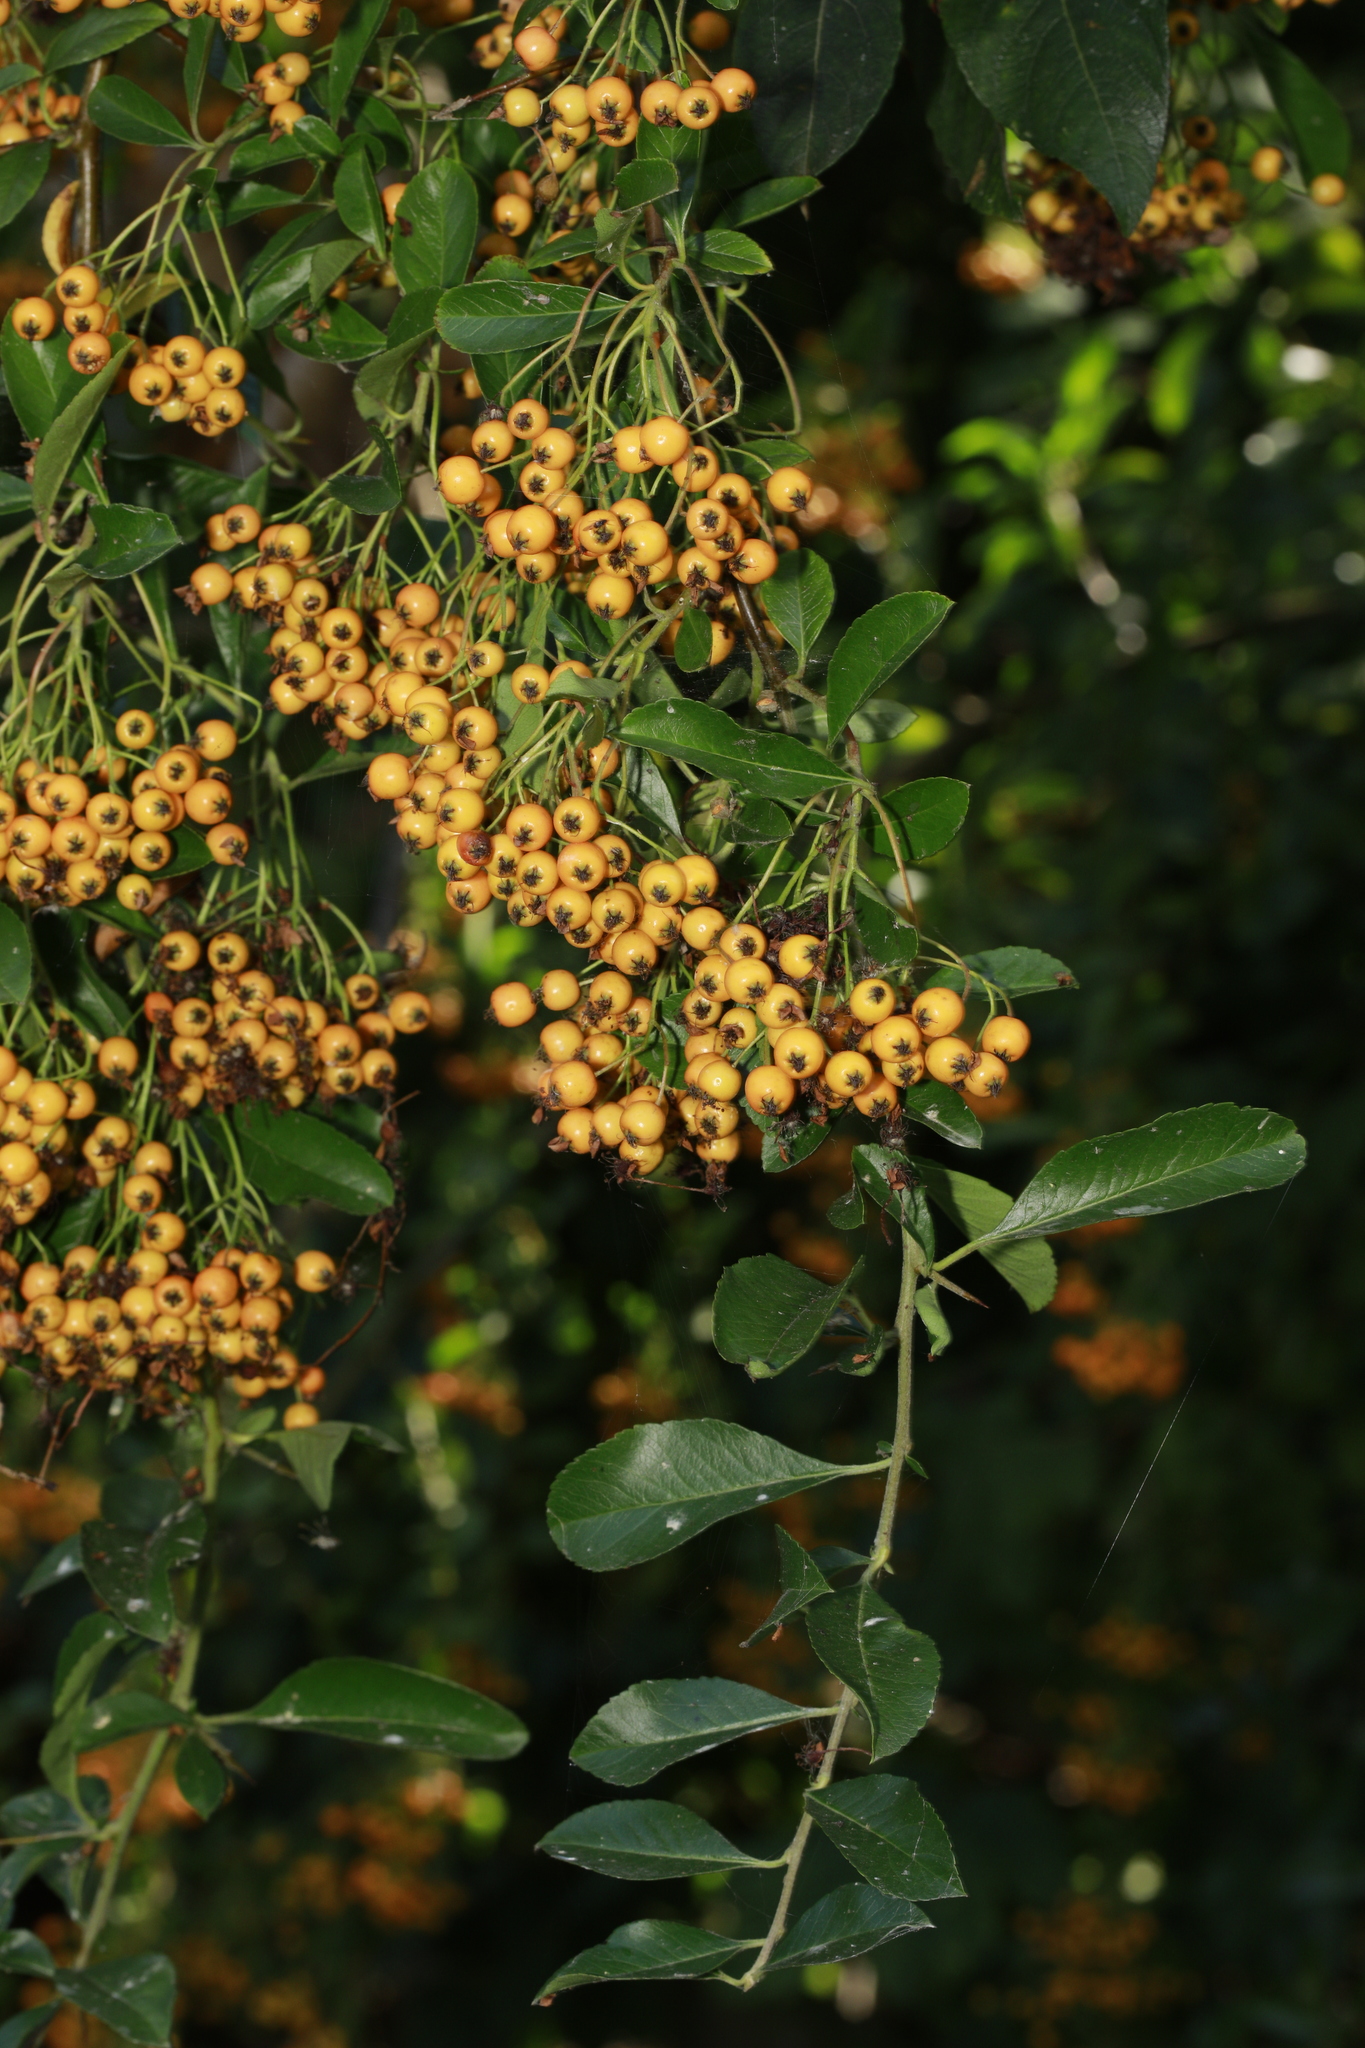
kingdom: Plantae
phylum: Tracheophyta
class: Magnoliopsida
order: Rosales
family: Rosaceae
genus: Pyracantha
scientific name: Pyracantha coccinea
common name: Firethorn
